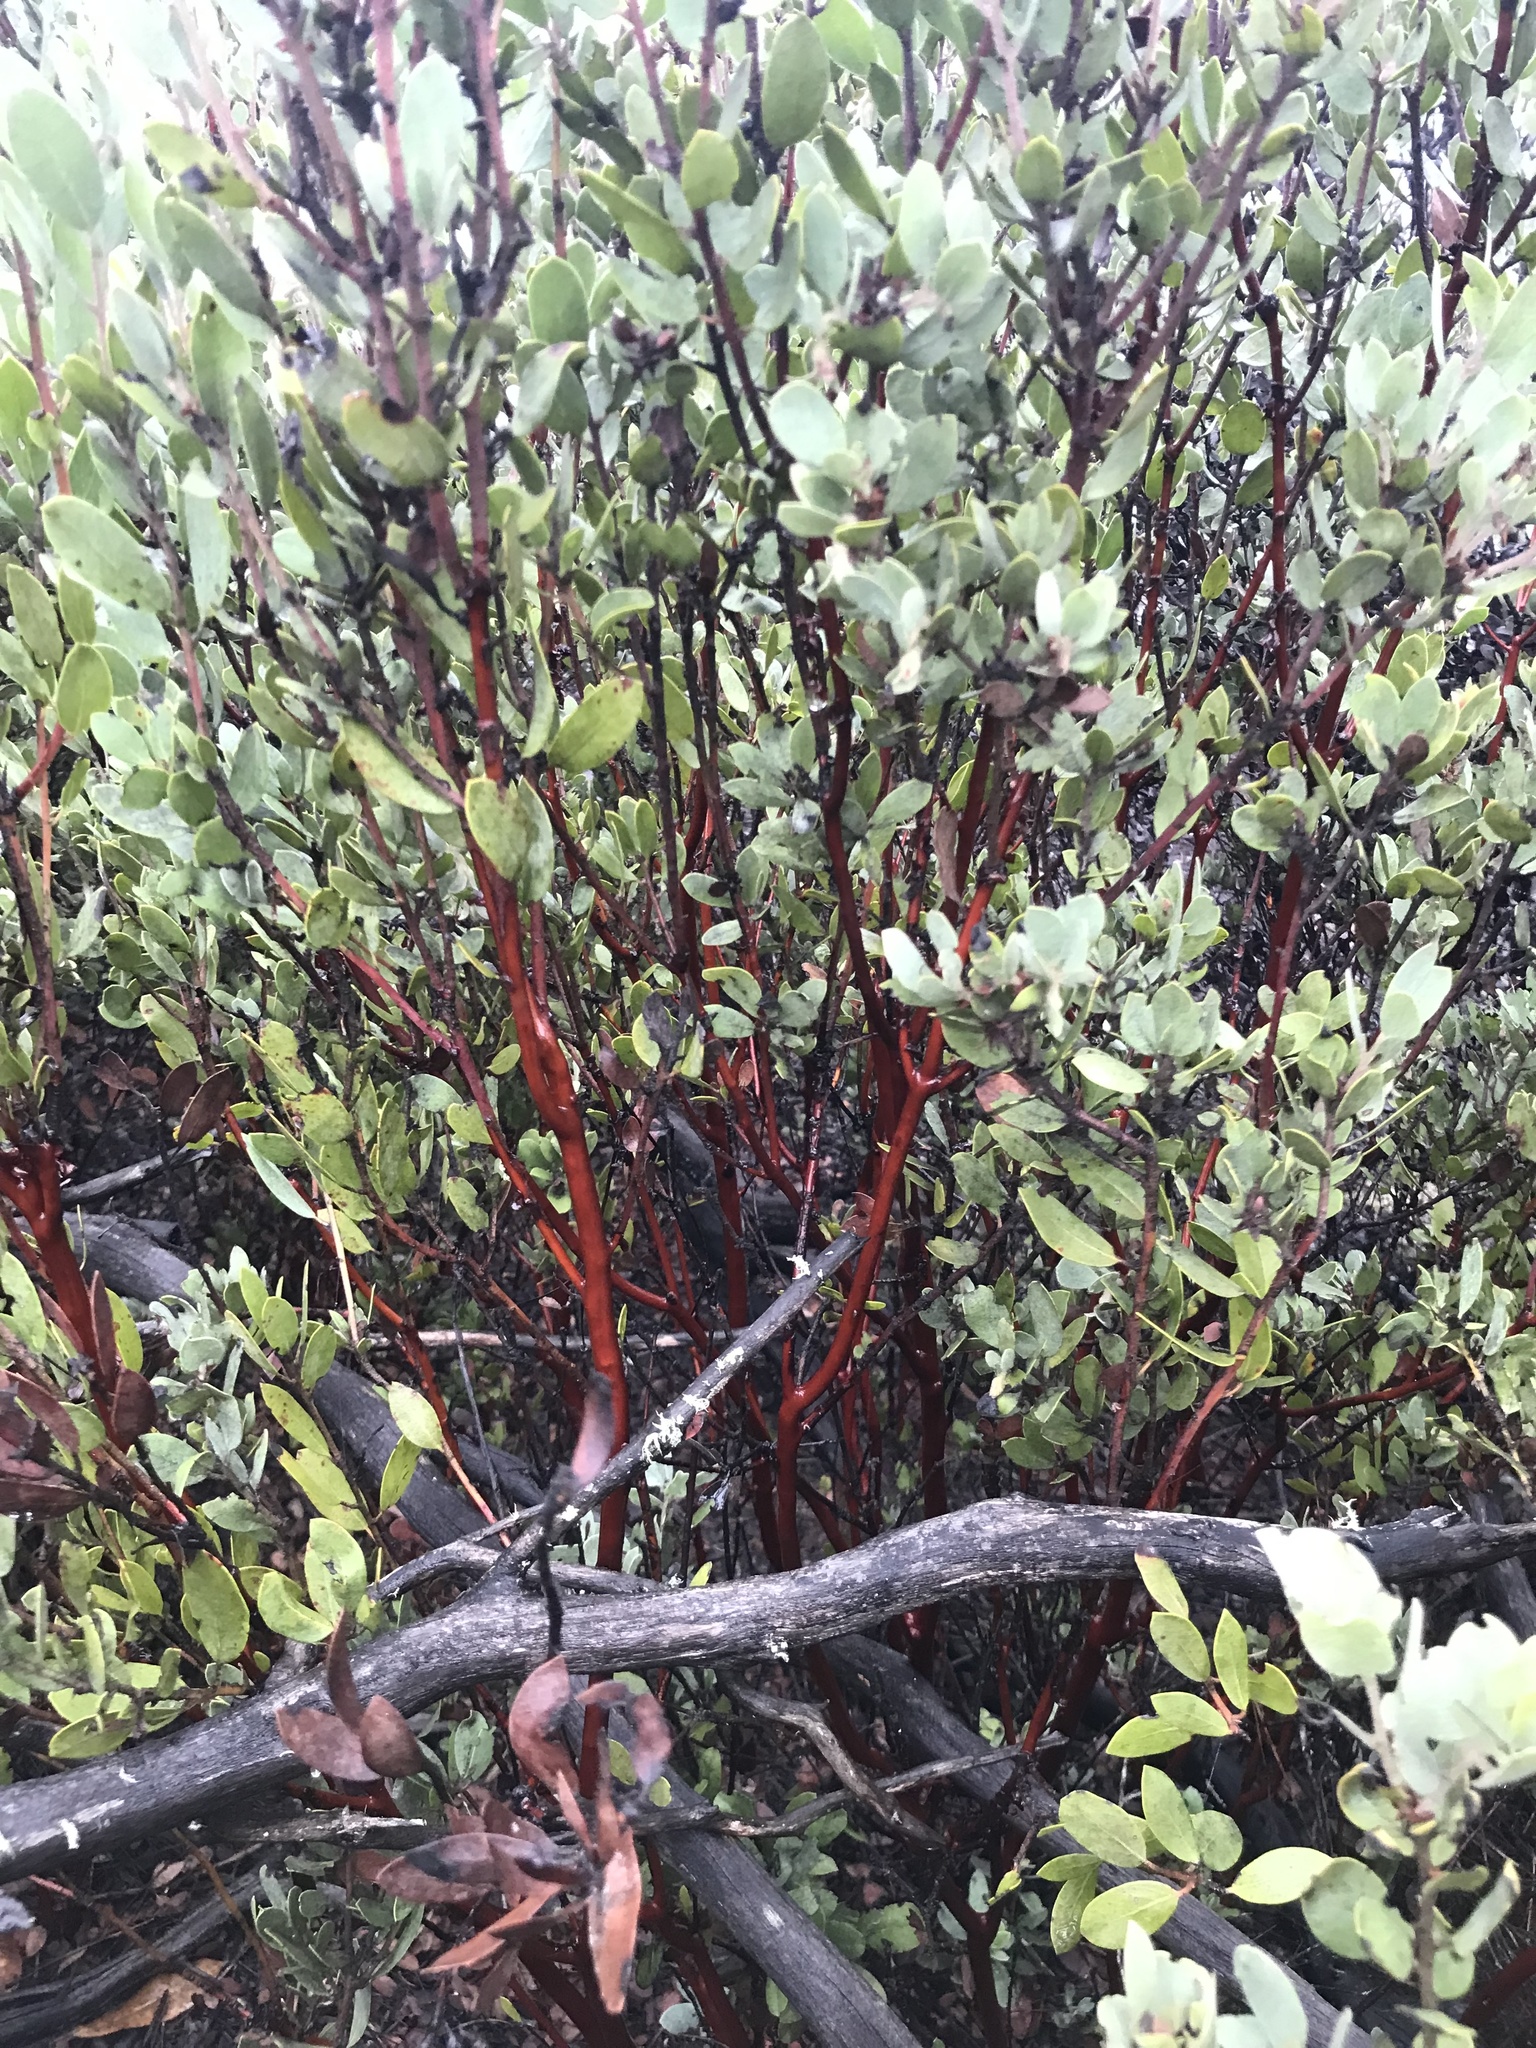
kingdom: Plantae
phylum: Tracheophyta
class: Magnoliopsida
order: Ericales
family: Ericaceae
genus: Arctostaphylos
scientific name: Arctostaphylos silvicola
